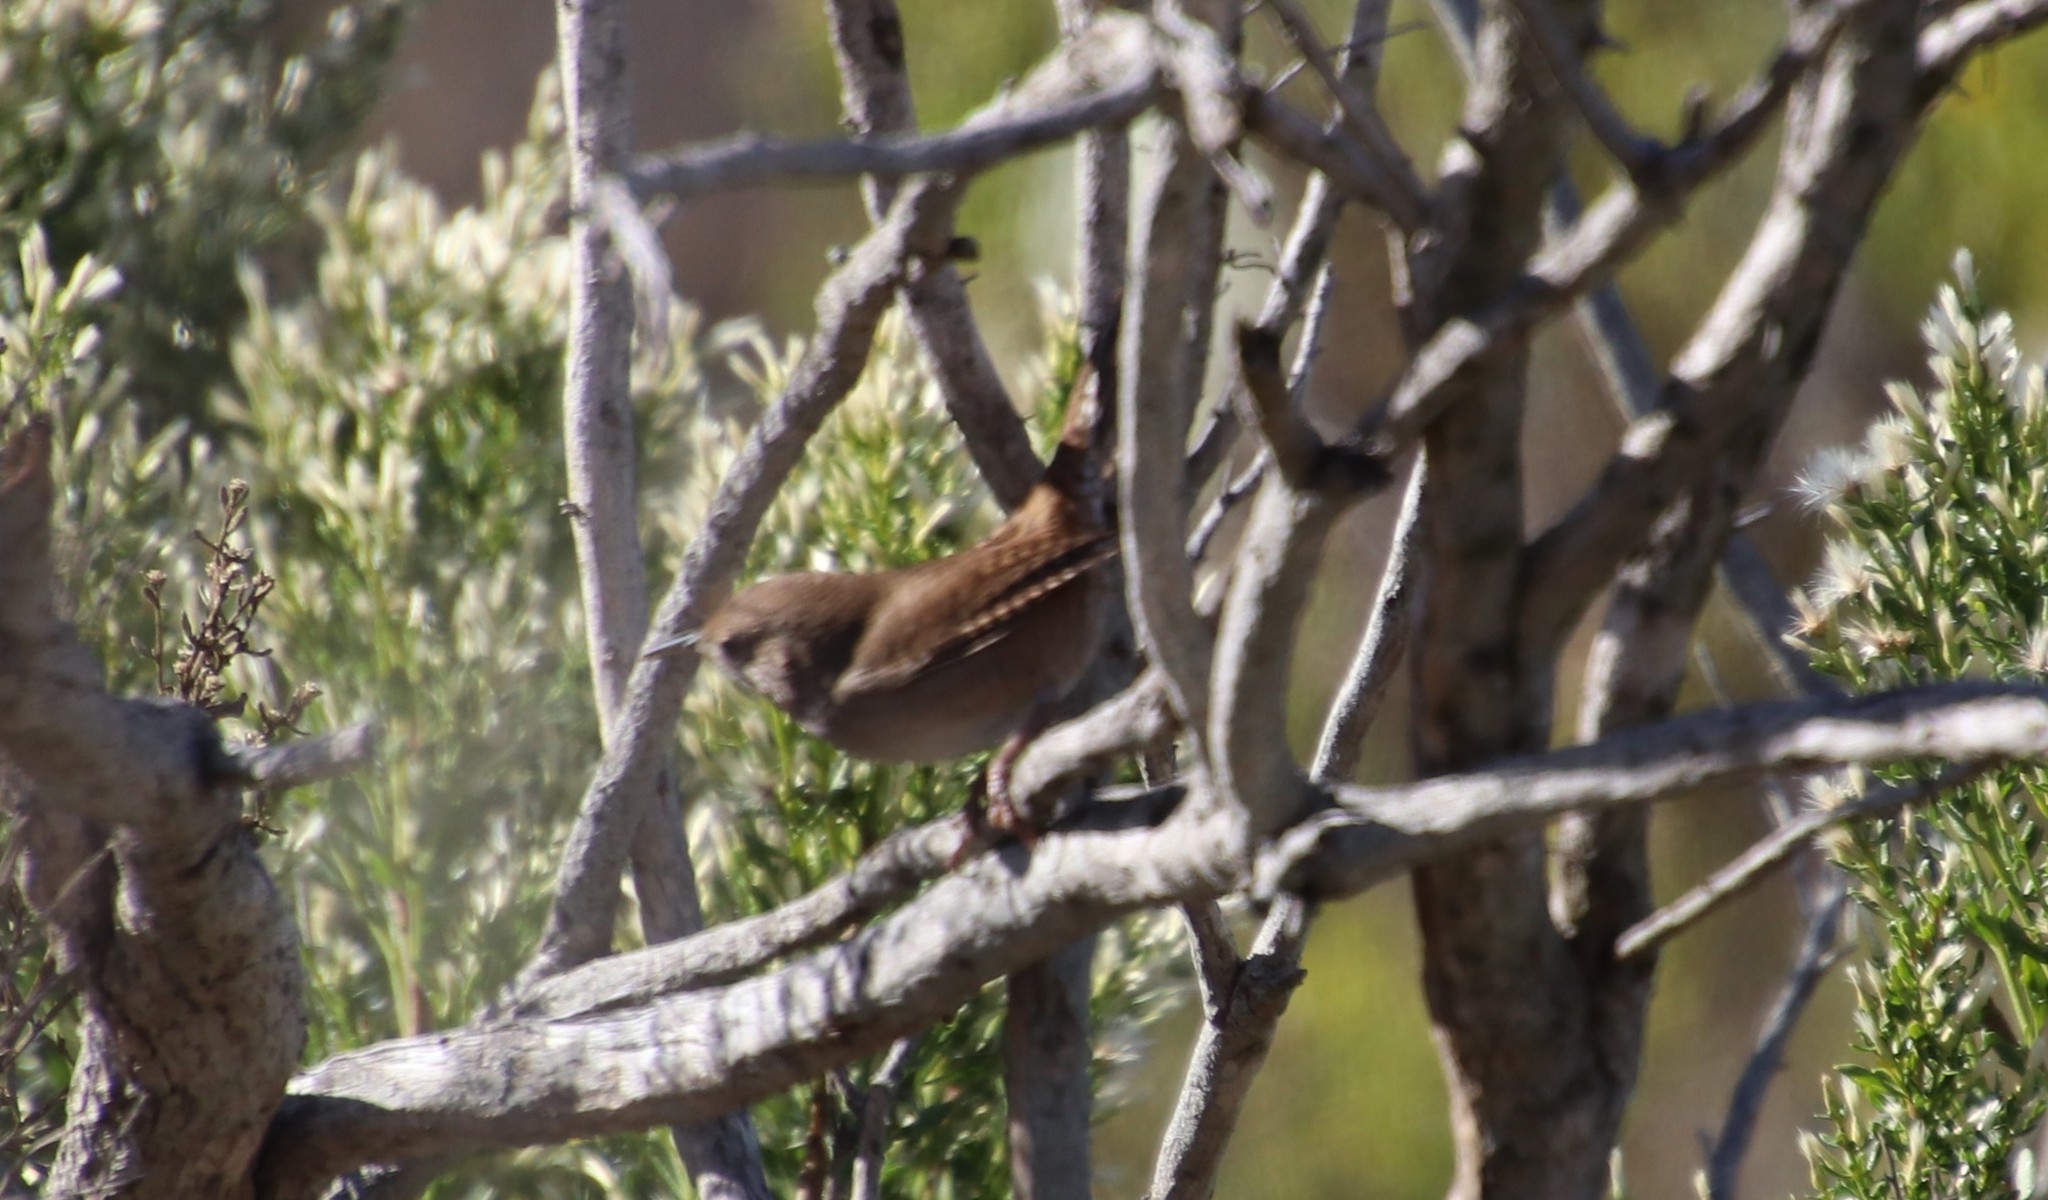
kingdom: Animalia
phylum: Chordata
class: Aves
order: Passeriformes
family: Troglodytidae
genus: Troglodytes
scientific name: Troglodytes aedon
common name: House wren
